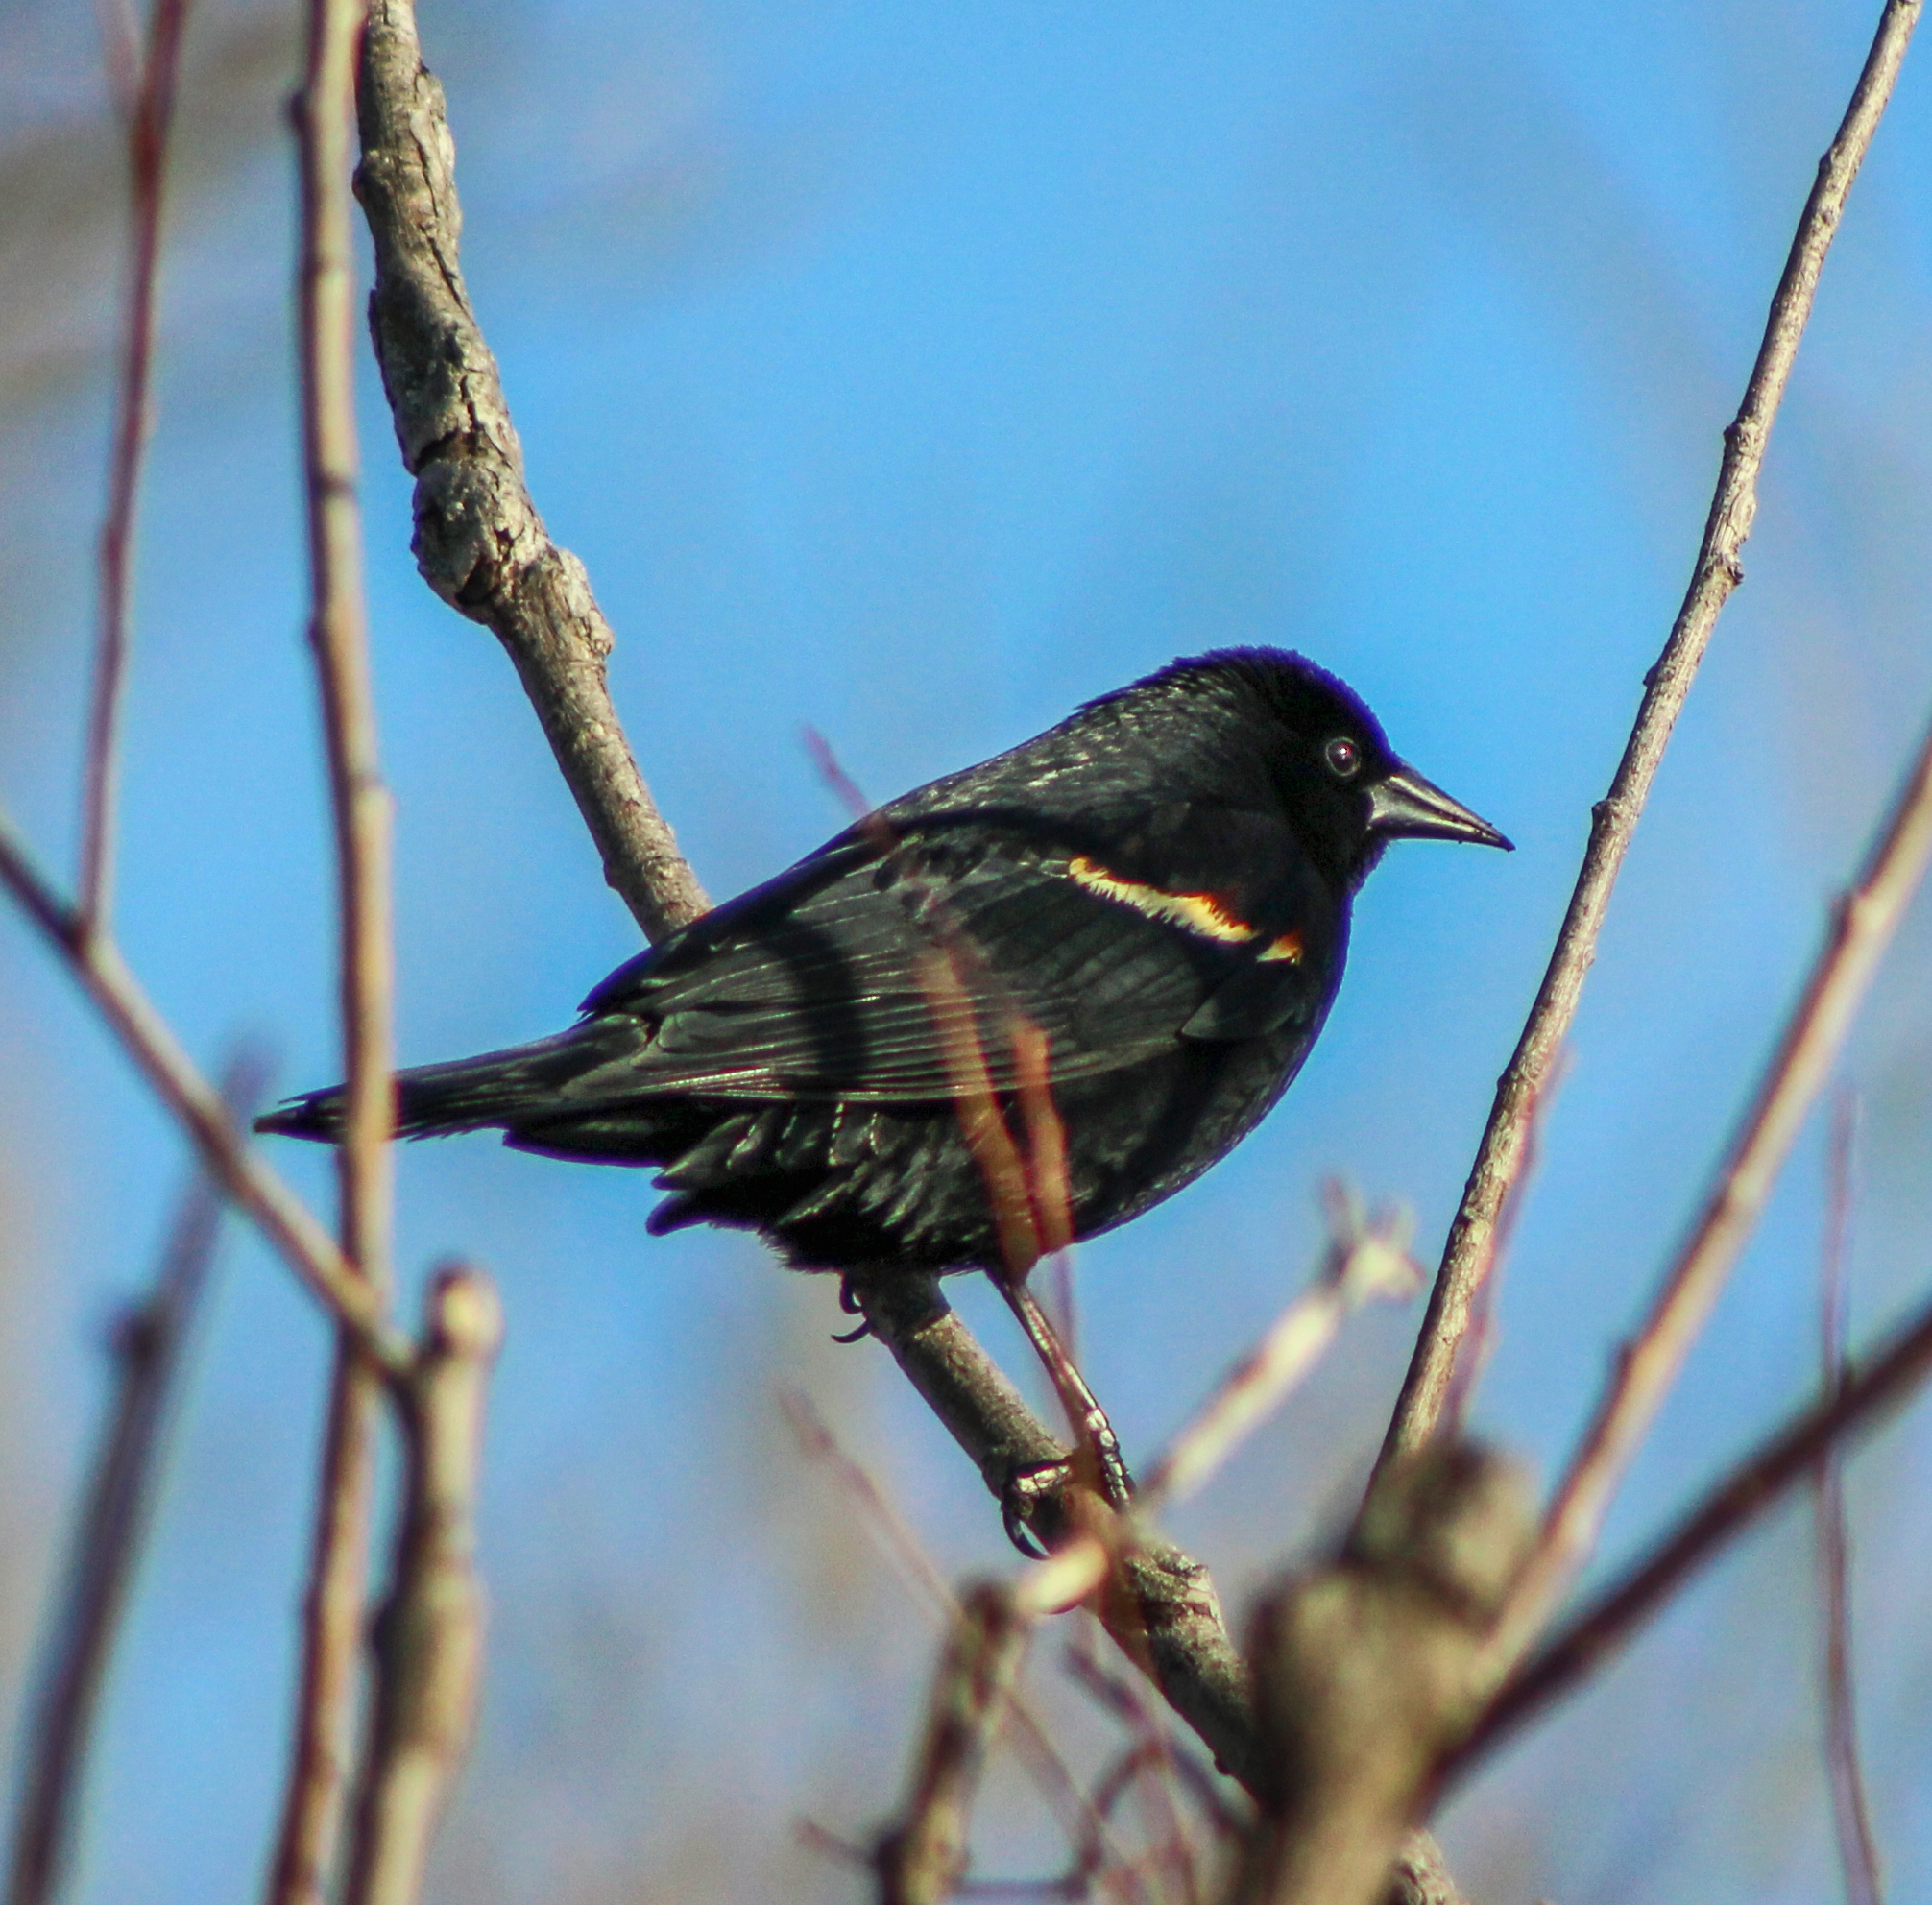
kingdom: Animalia
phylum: Chordata
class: Aves
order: Passeriformes
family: Icteridae
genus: Agelaius
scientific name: Agelaius phoeniceus
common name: Red-winged blackbird
